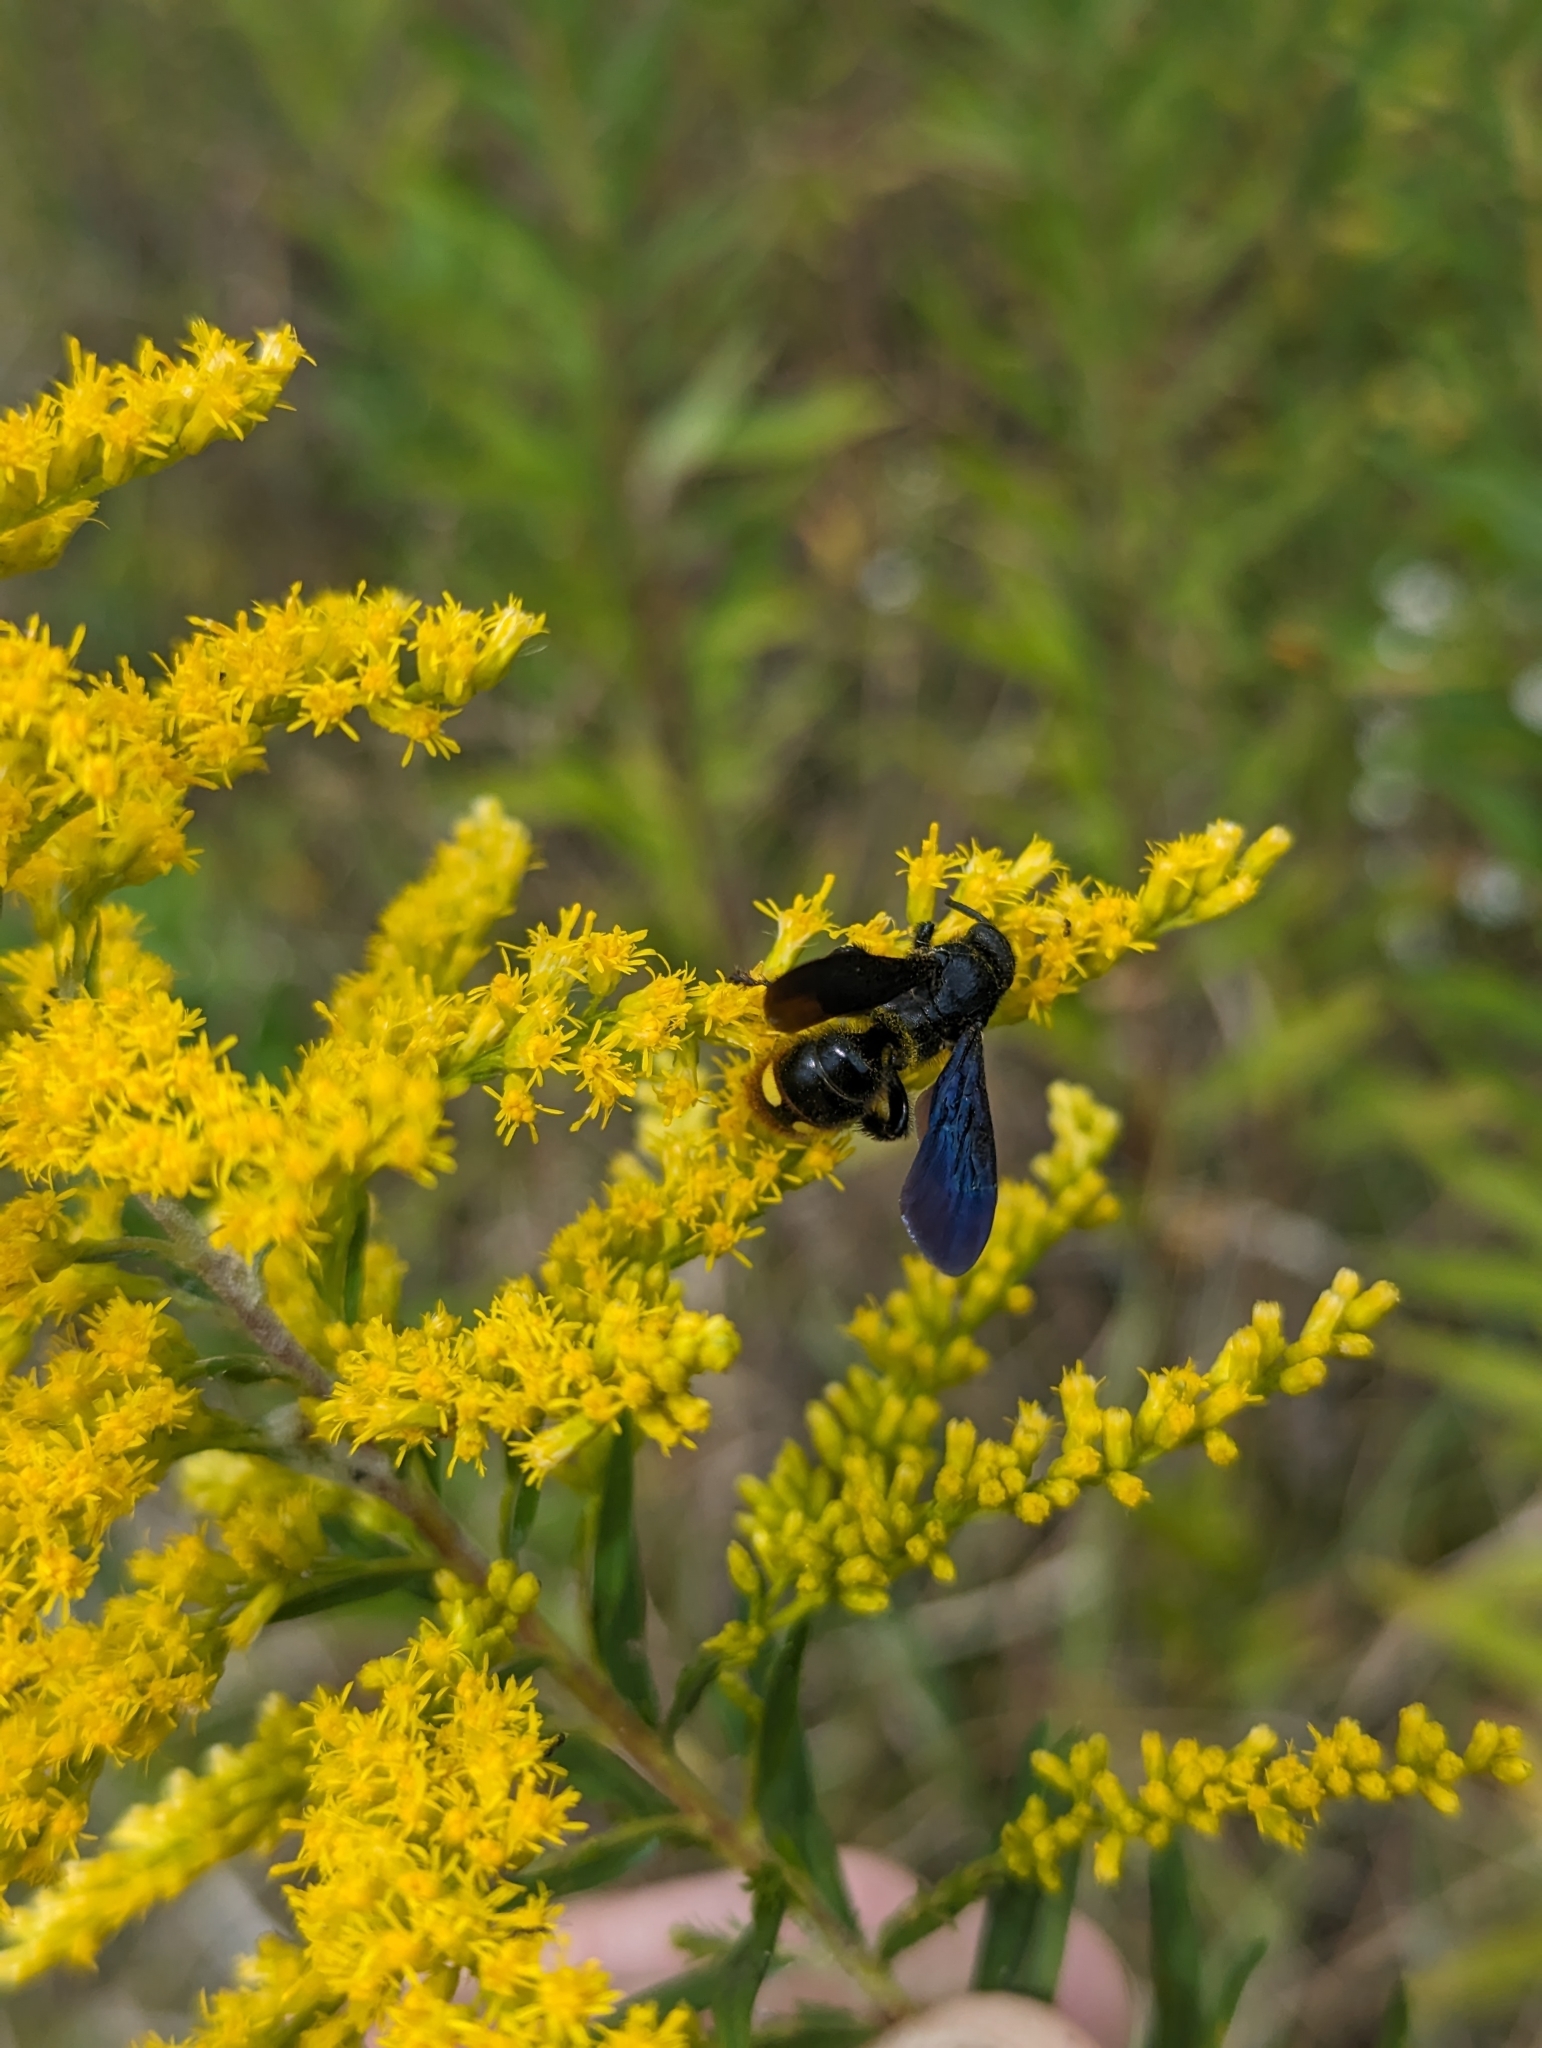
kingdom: Animalia
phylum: Arthropoda
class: Insecta
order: Hymenoptera
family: Scoliidae
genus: Scolia
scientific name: Scolia dubia
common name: Blue-winged scoliid wasp
